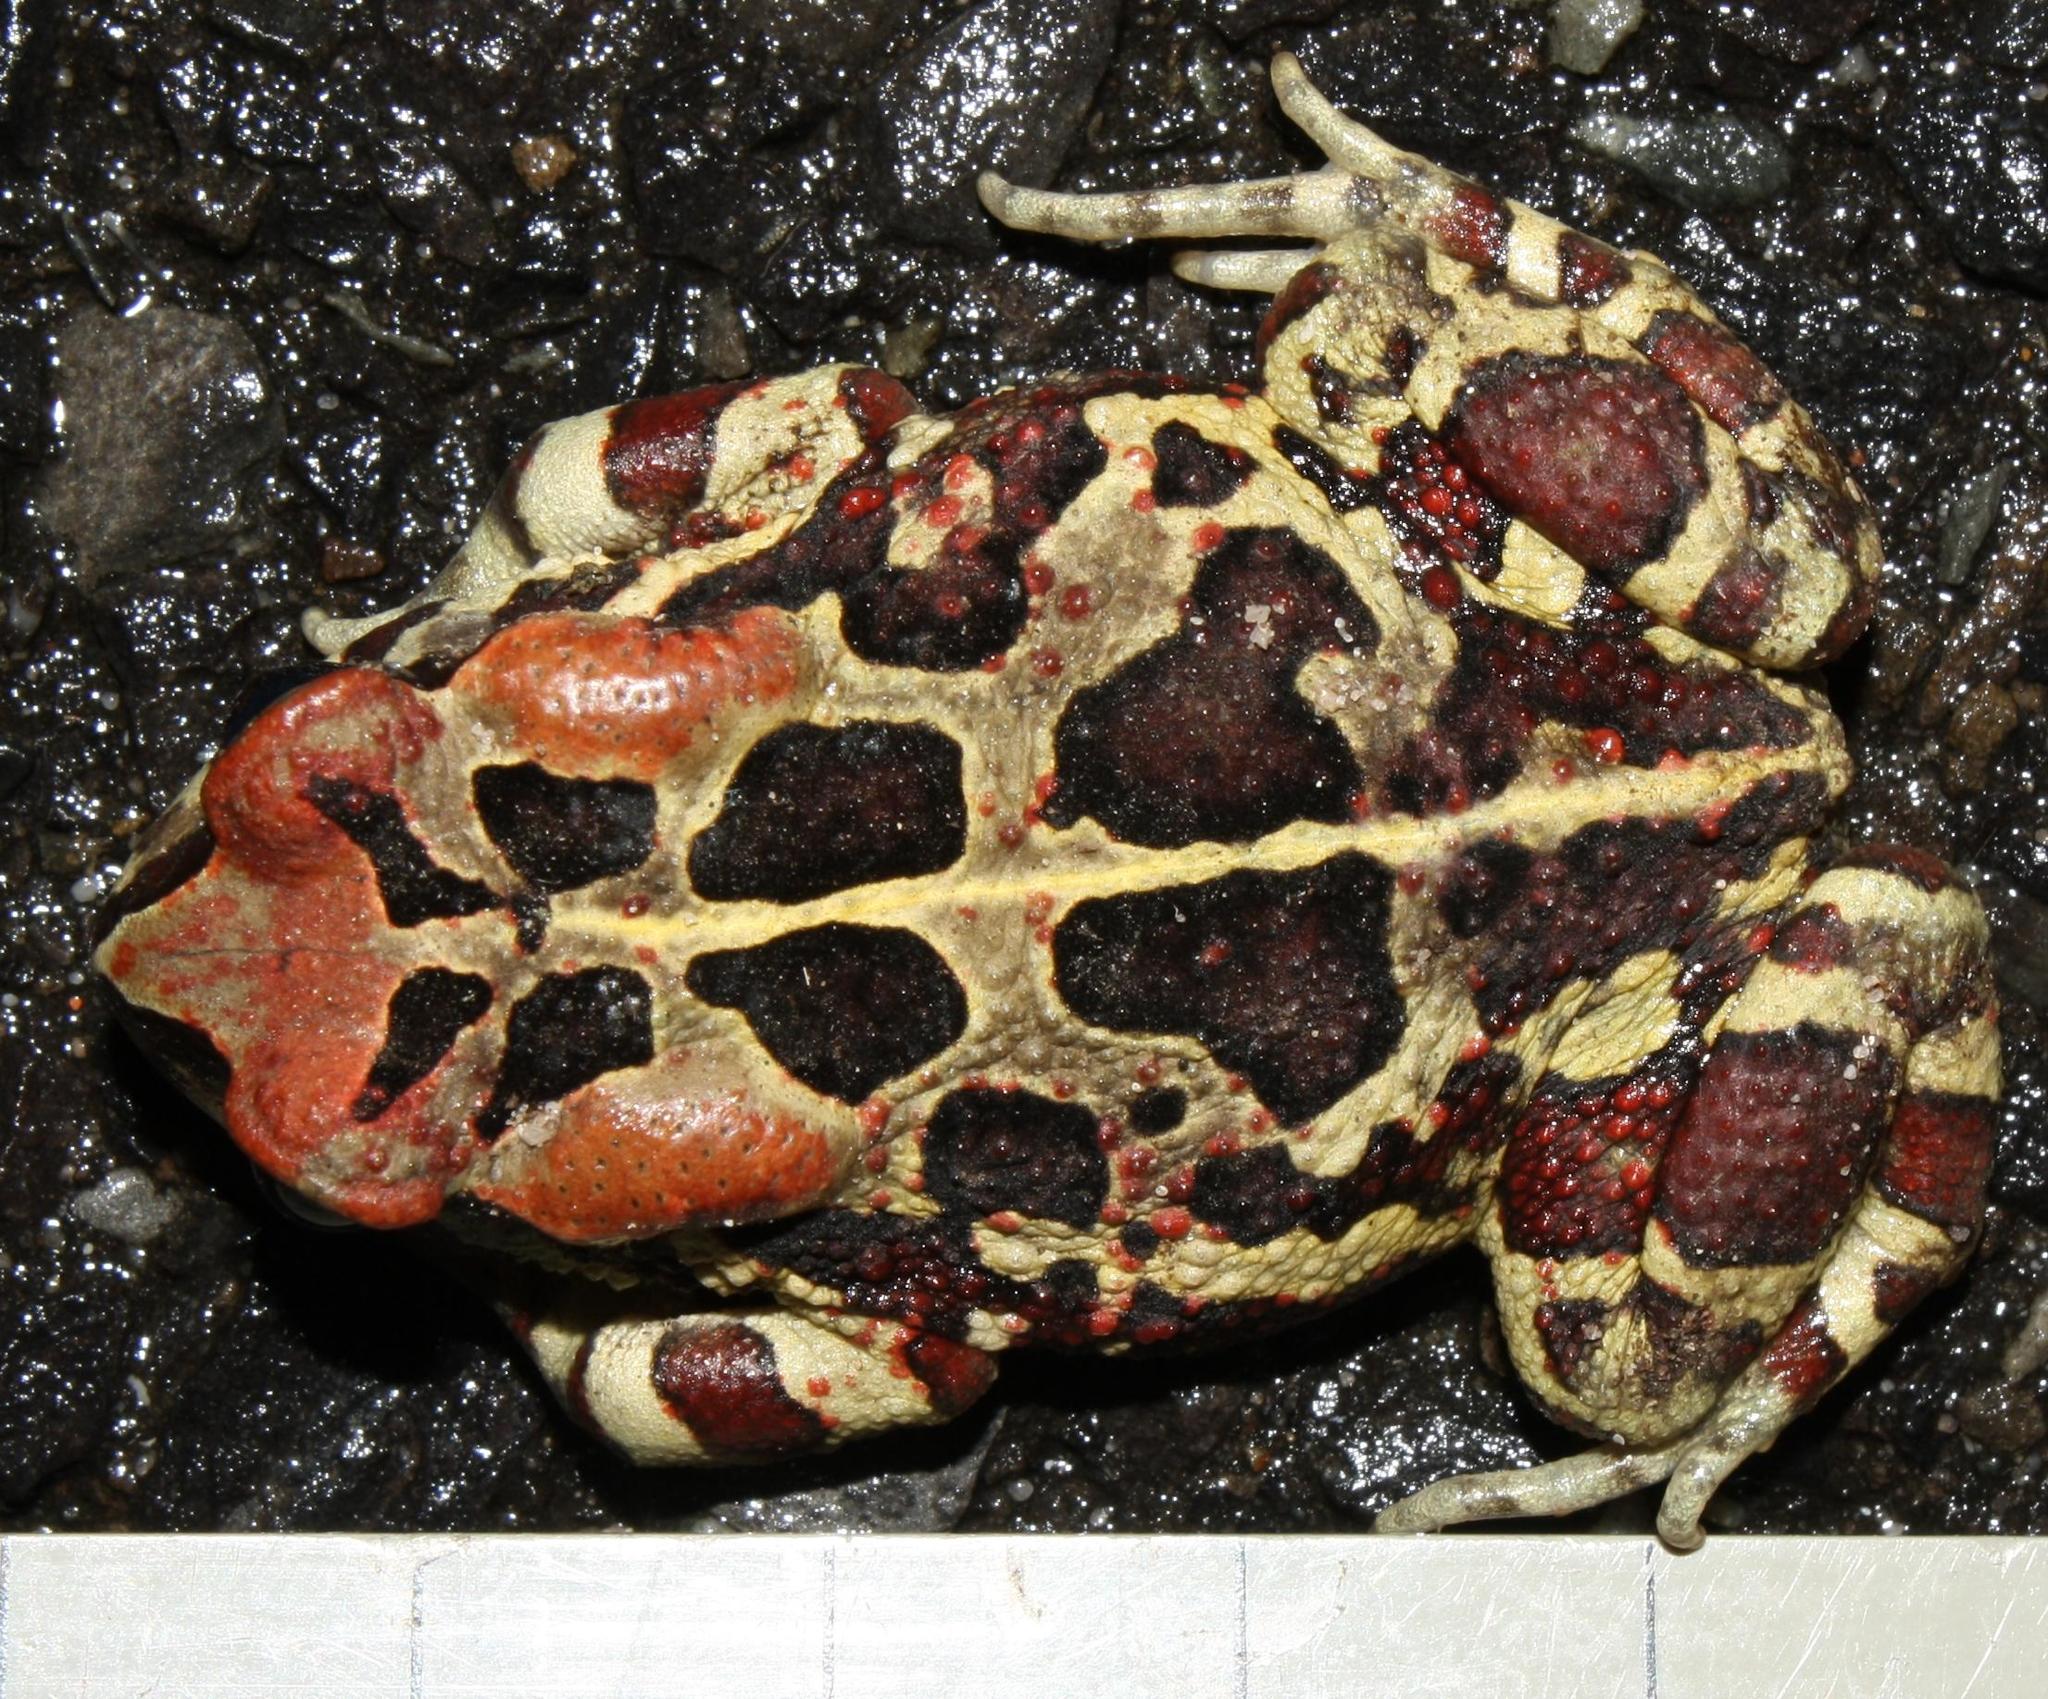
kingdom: Animalia
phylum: Chordata
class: Amphibia
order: Anura
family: Bufonidae
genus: Sclerophrys
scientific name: Sclerophrys pantherina
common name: Panther toad
